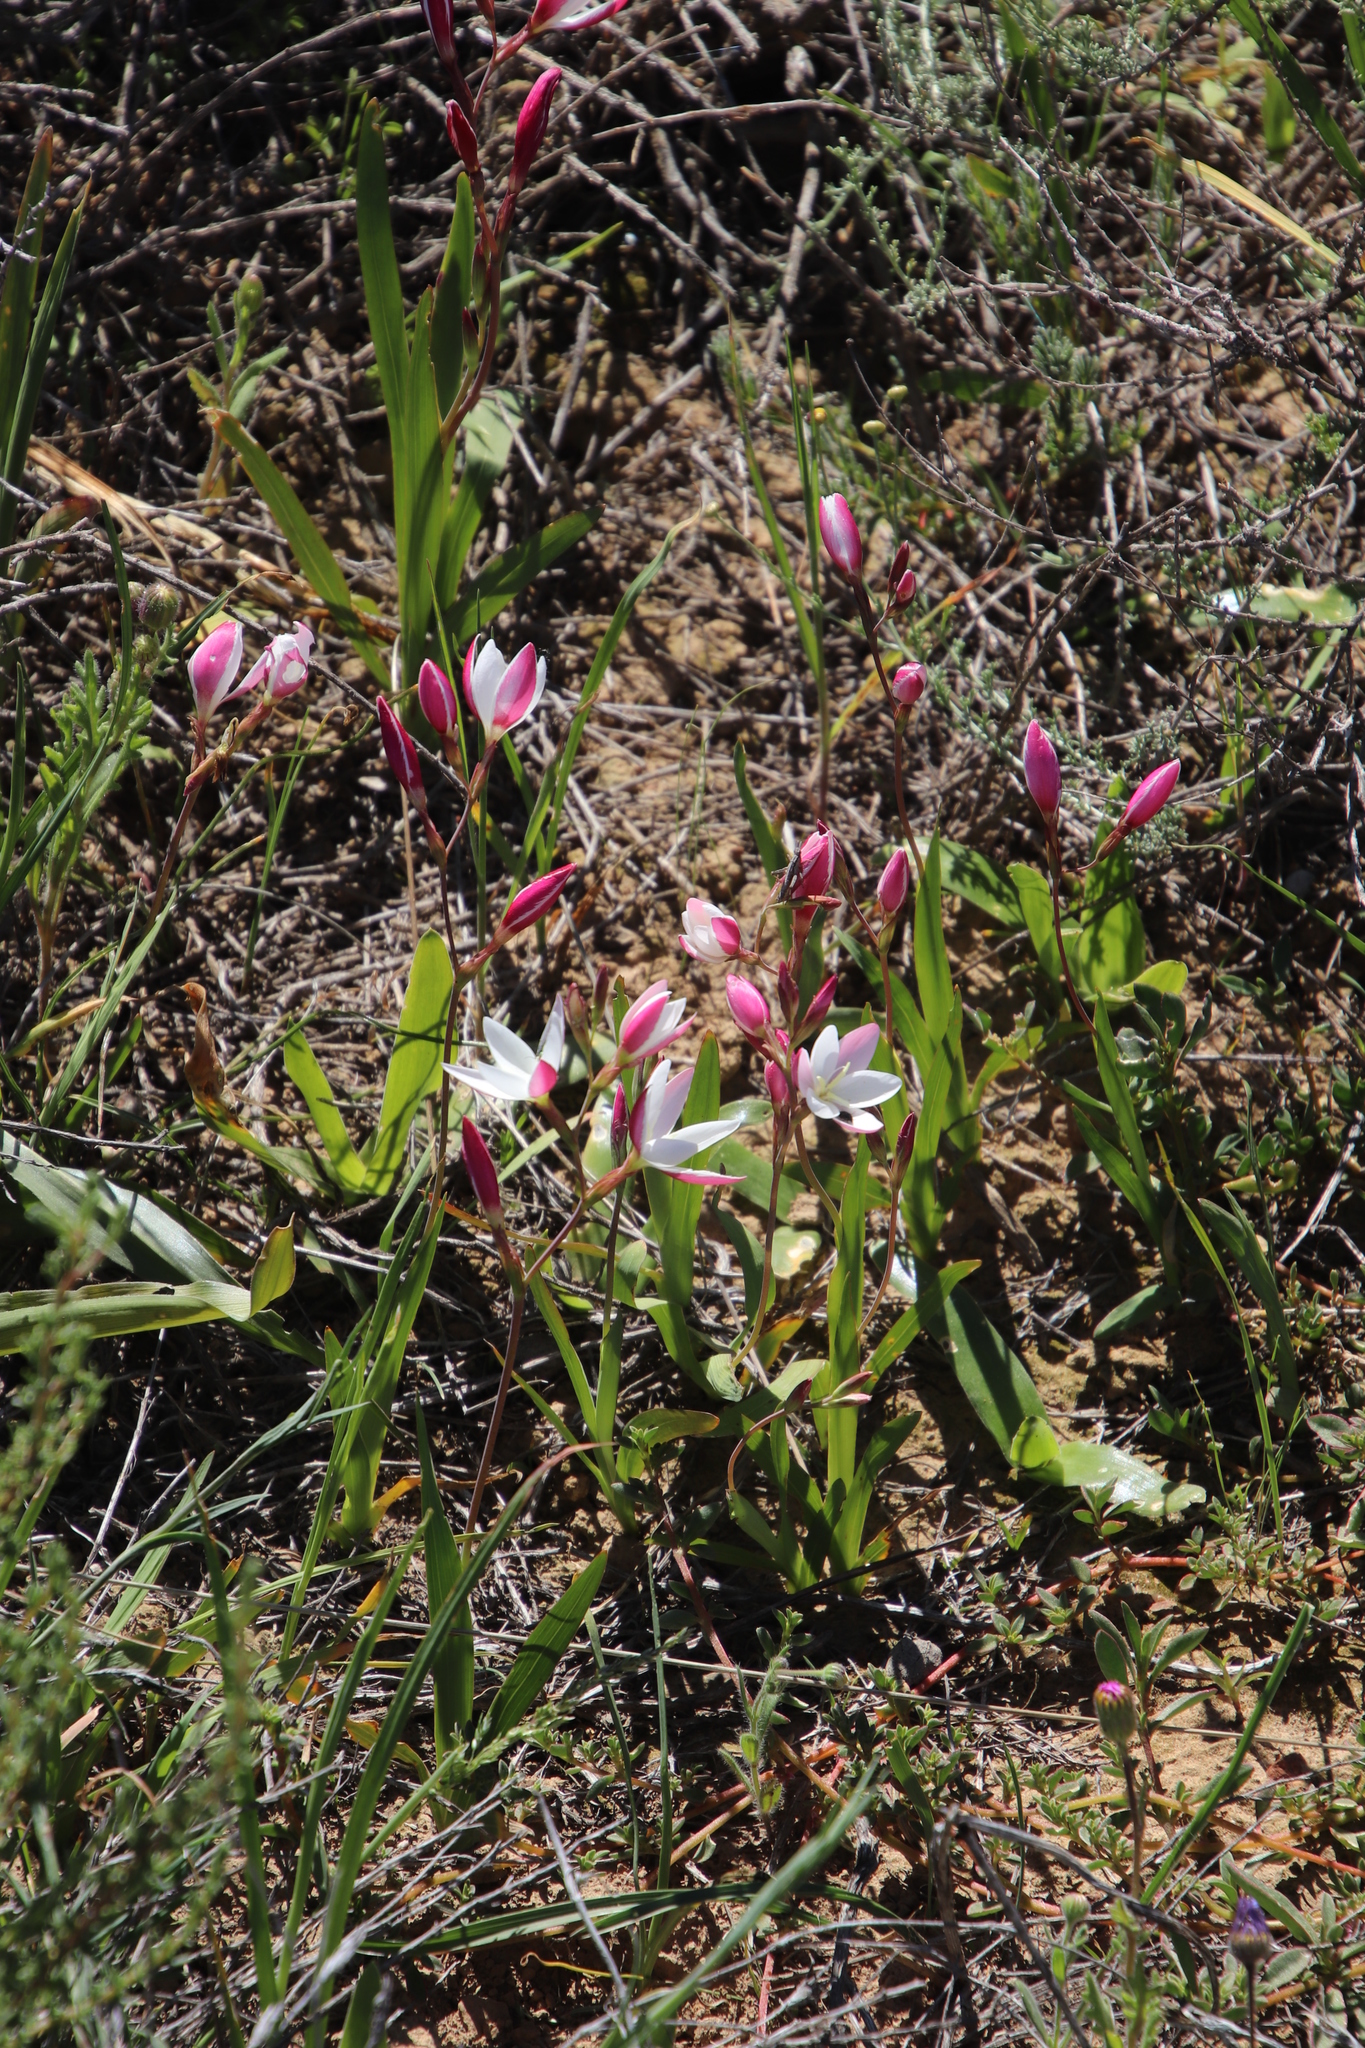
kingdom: Plantae
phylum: Tracheophyta
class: Liliopsida
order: Asparagales
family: Iridaceae
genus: Hesperantha
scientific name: Hesperantha cucullata
